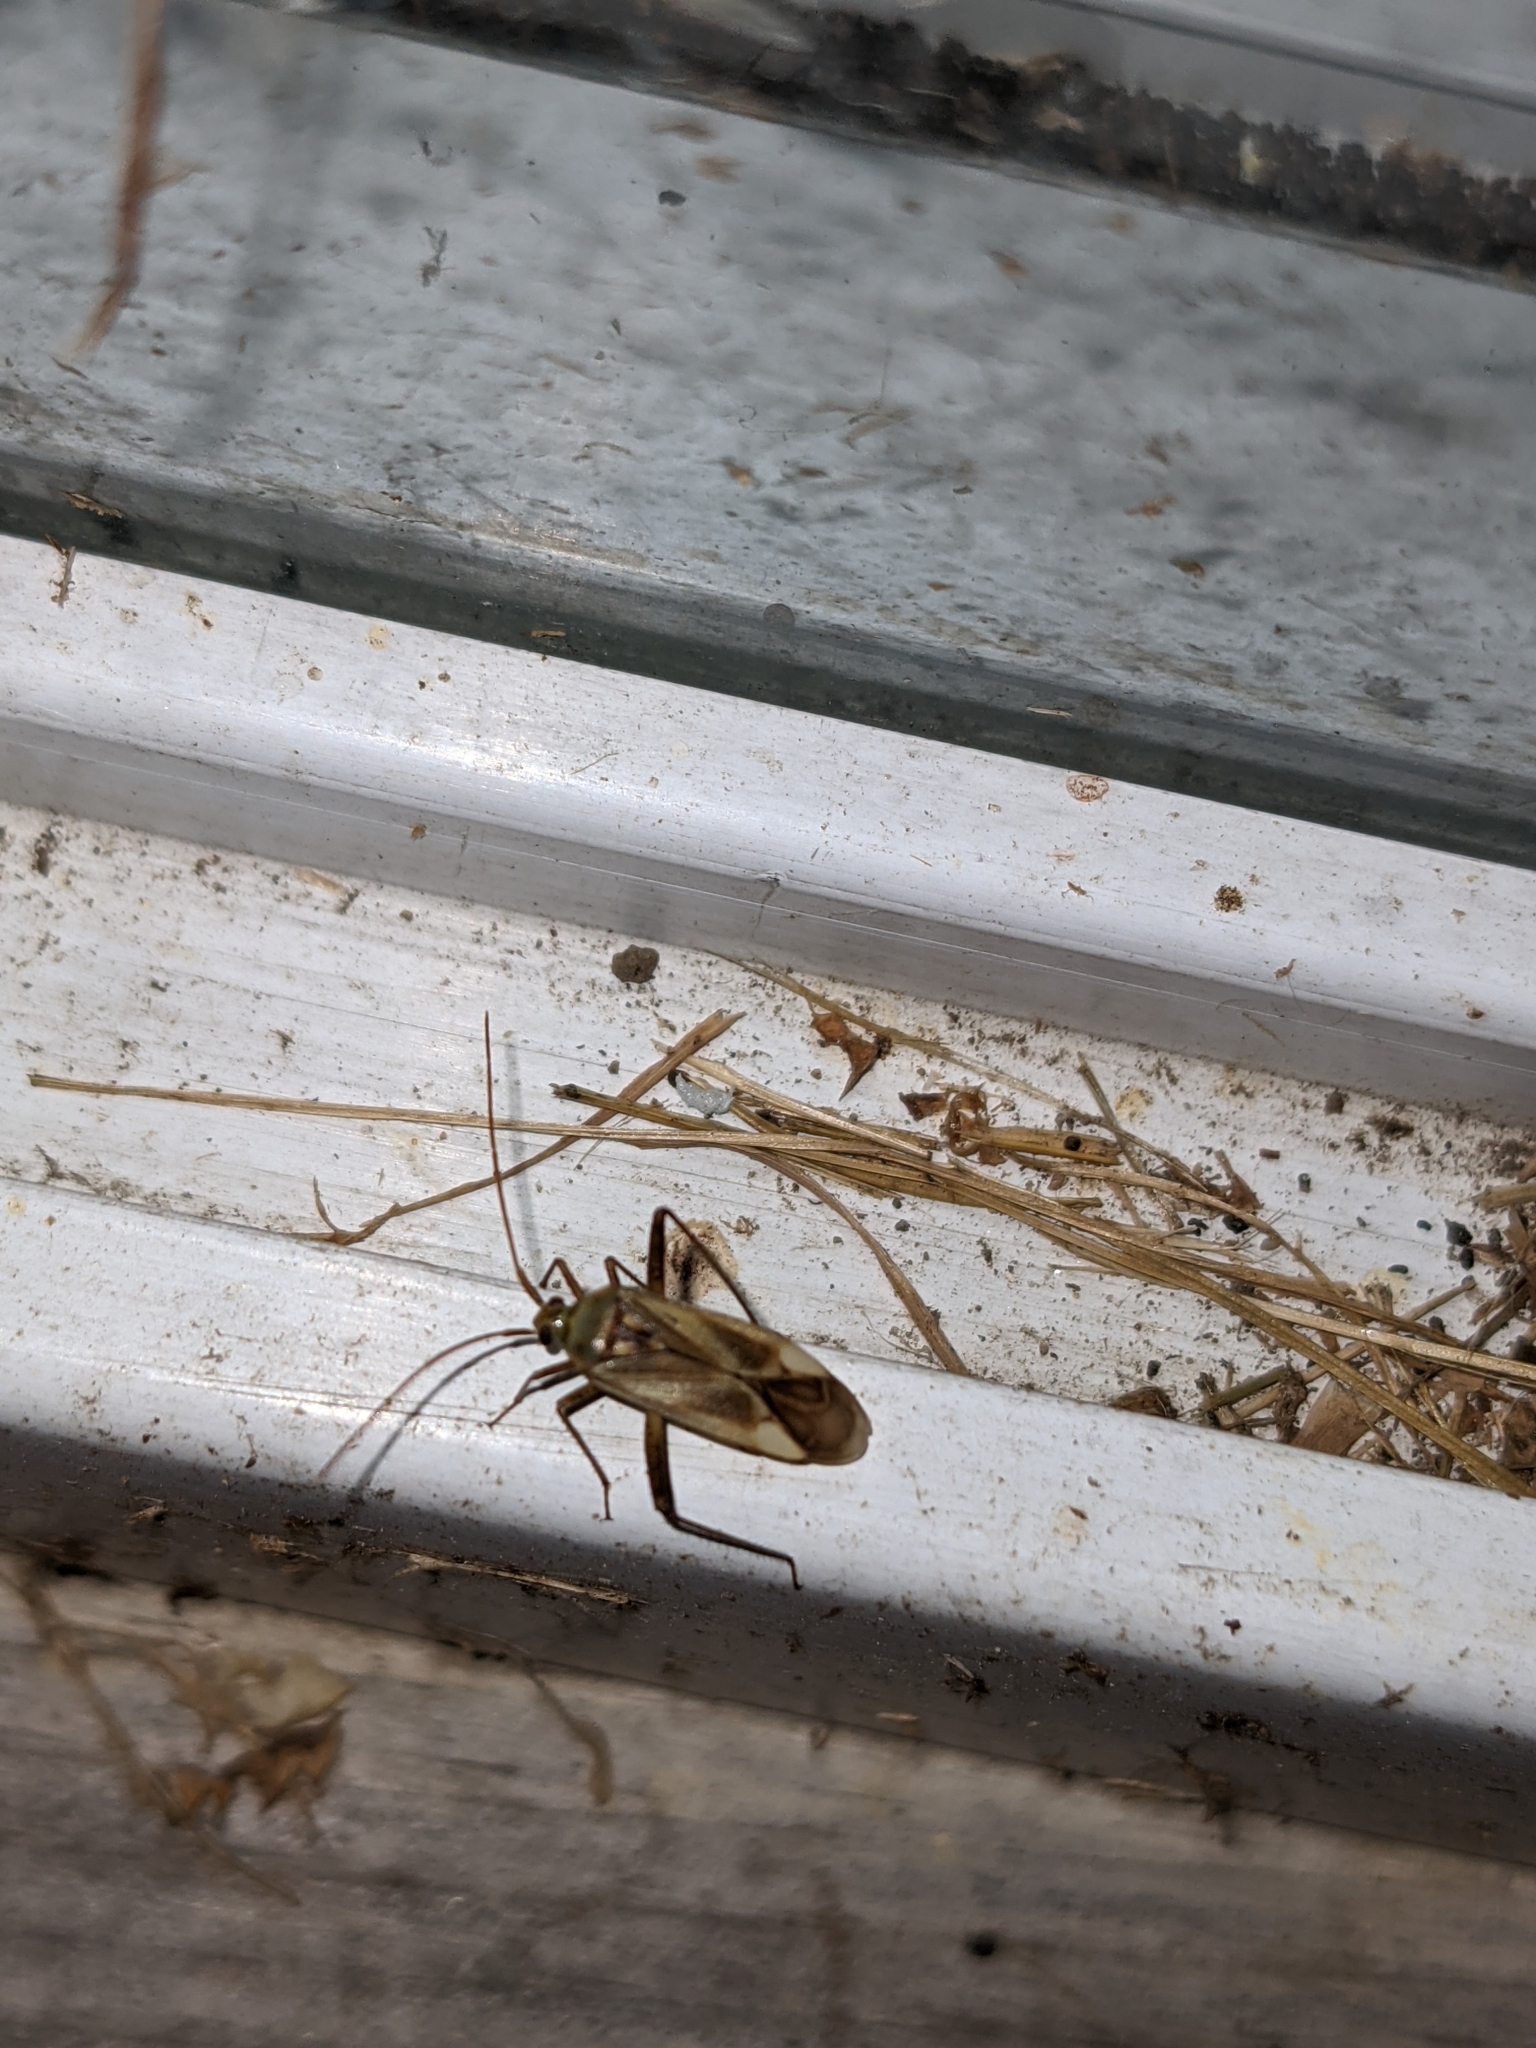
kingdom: Animalia
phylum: Arthropoda
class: Insecta
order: Hemiptera
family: Miridae
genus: Adelphocoris
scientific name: Adelphocoris lineolatus
